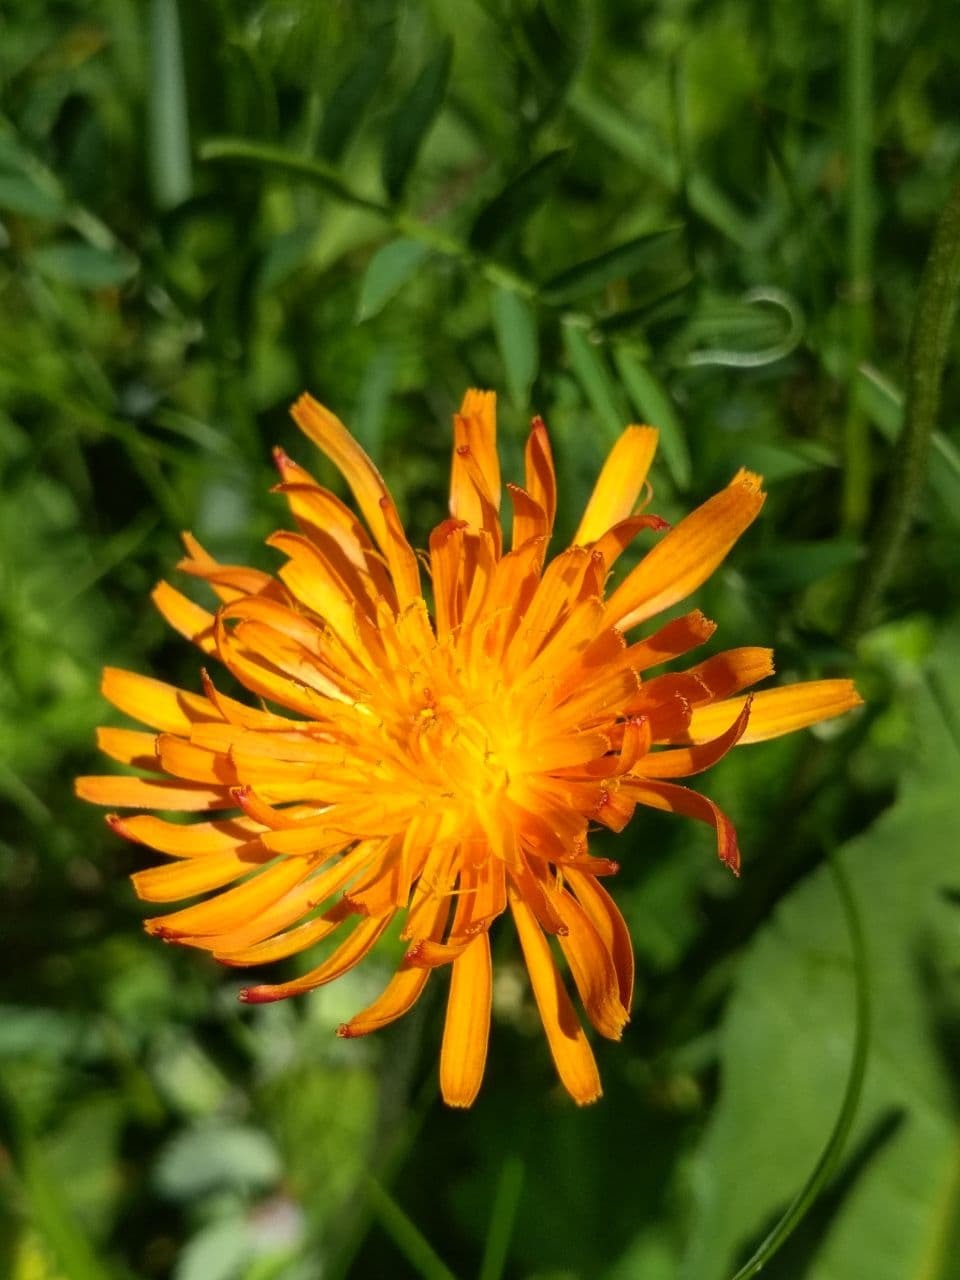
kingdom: Plantae
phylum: Tracheophyta
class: Magnoliopsida
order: Asterales
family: Asteraceae
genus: Crepis
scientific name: Crepis aurea
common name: Golden hawk's-beard
